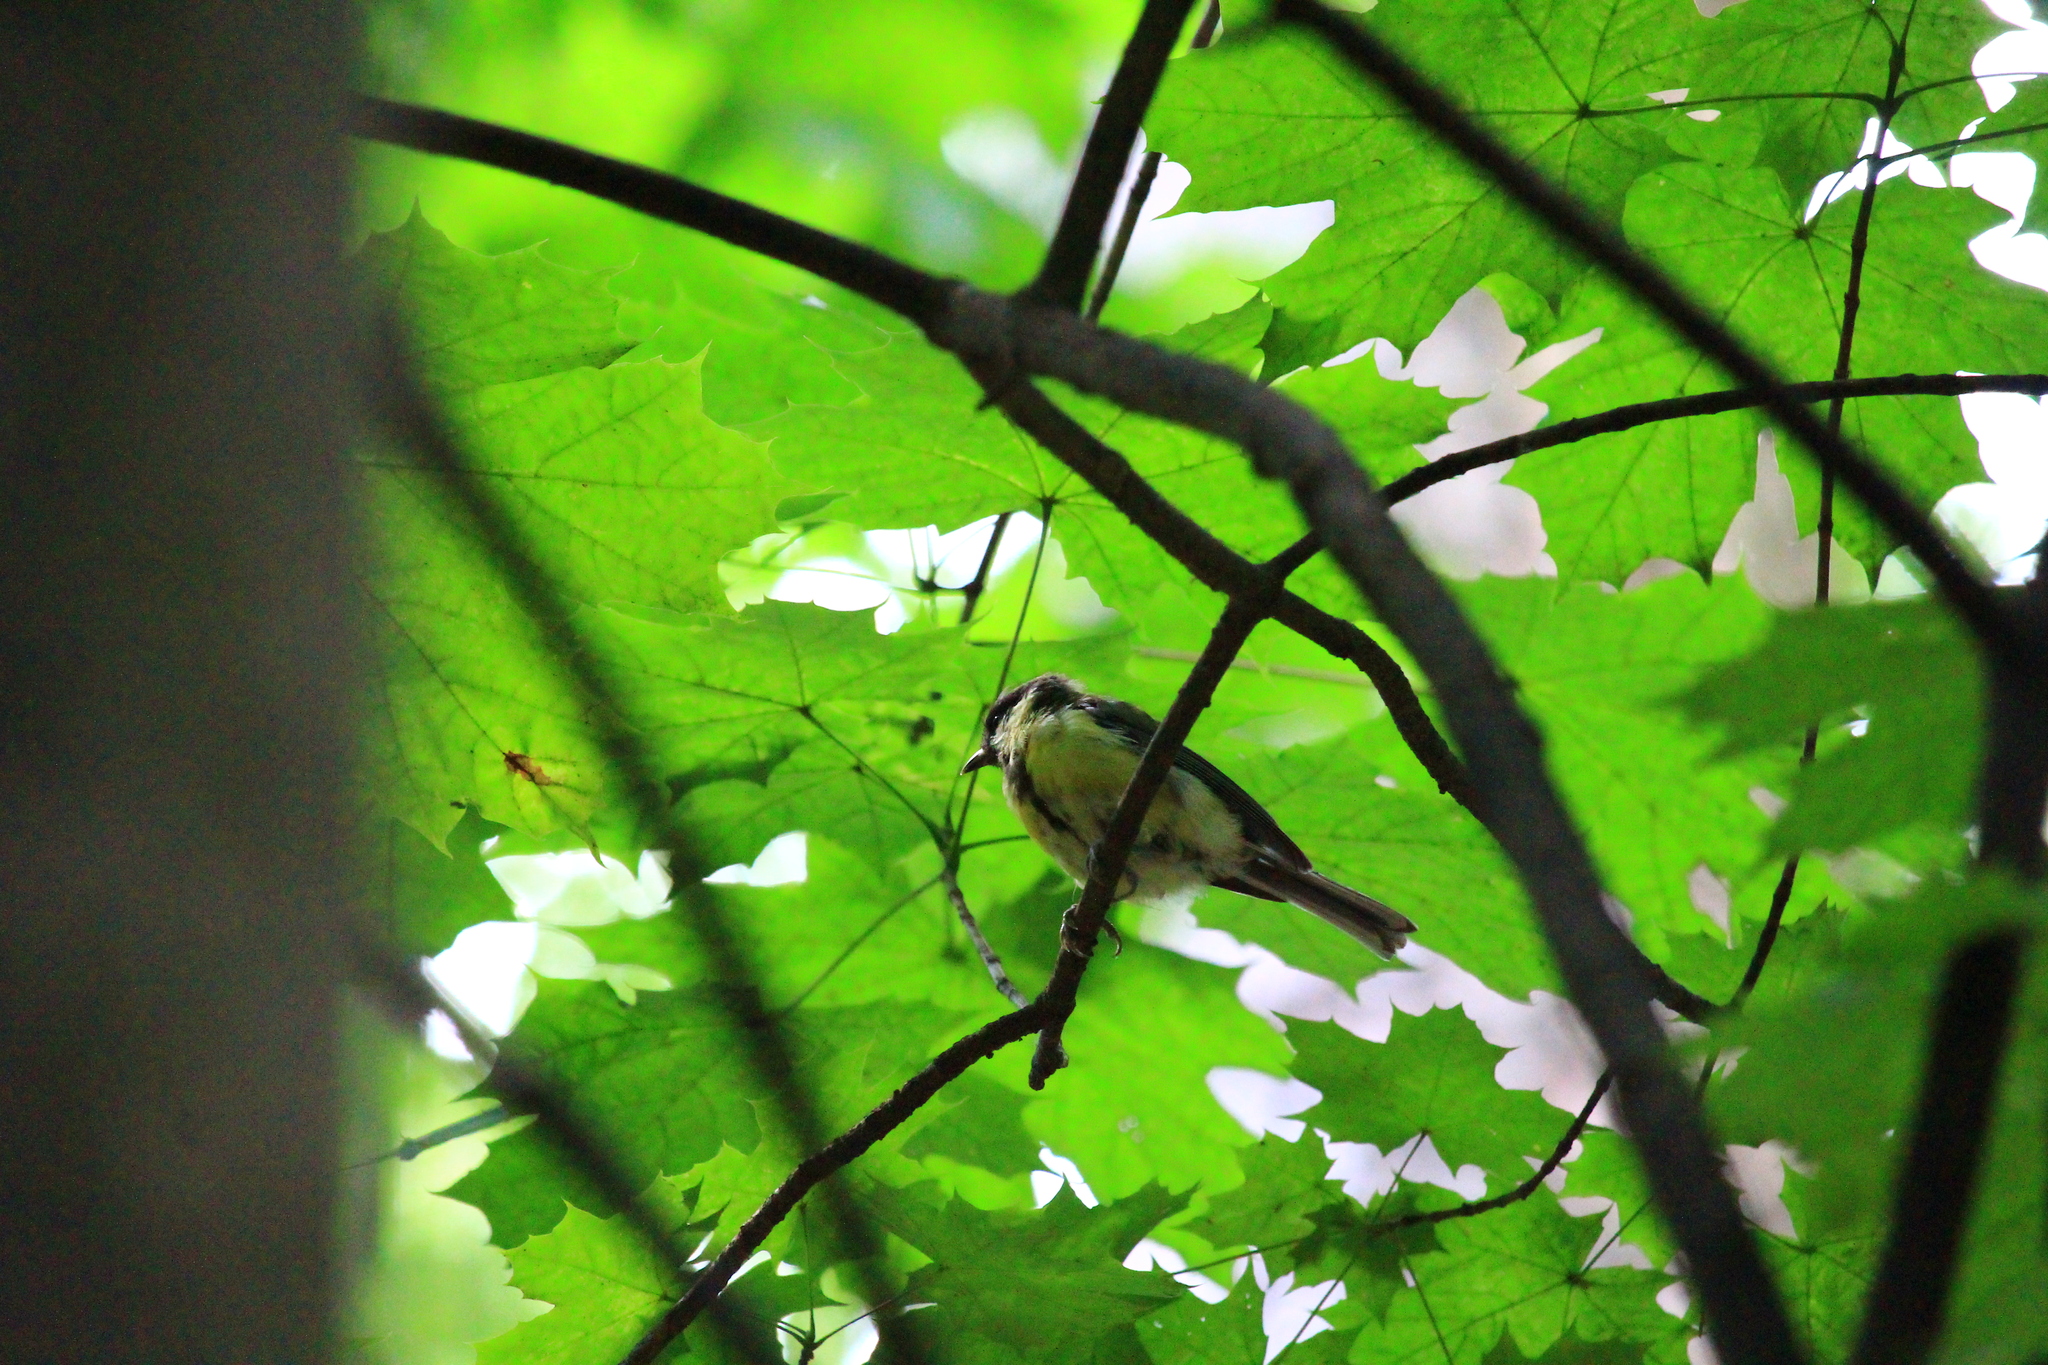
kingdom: Animalia
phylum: Chordata
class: Aves
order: Passeriformes
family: Paridae
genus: Parus
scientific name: Parus major
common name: Great tit
